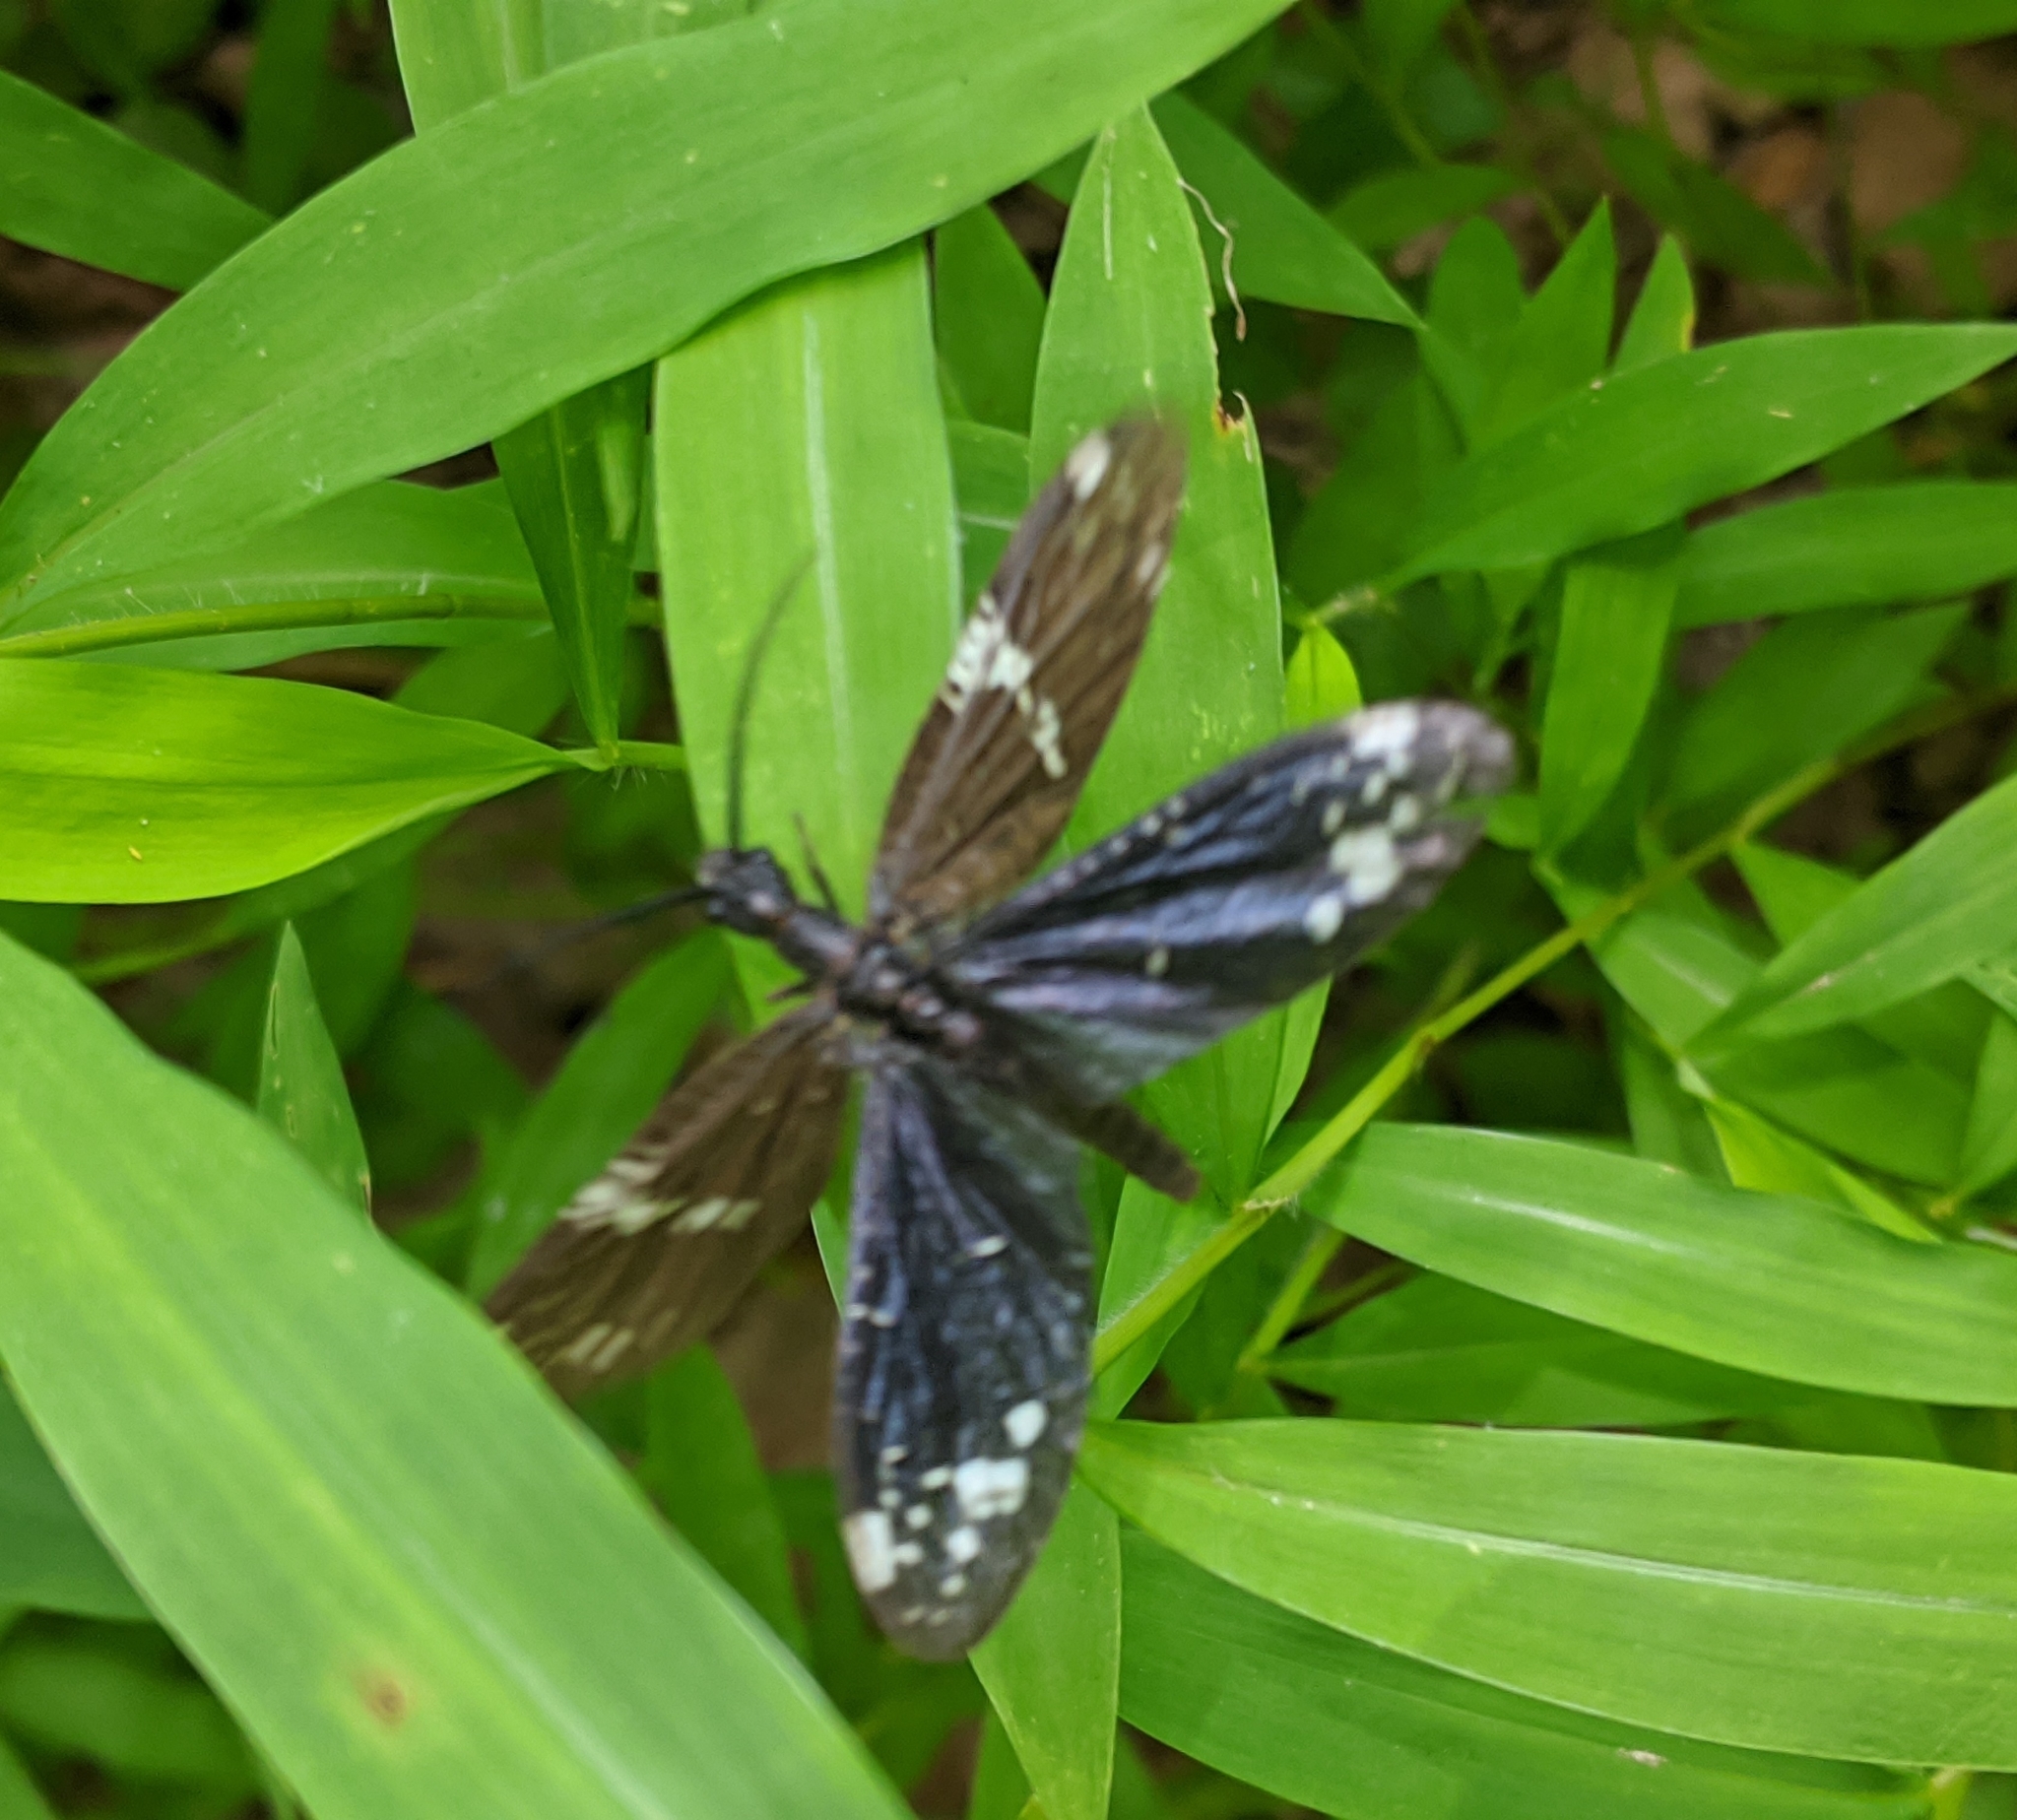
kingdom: Animalia
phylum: Arthropoda
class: Insecta
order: Megaloptera
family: Corydalidae
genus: Nigronia
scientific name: Nigronia serricornis
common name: Serrate dark fishfly
